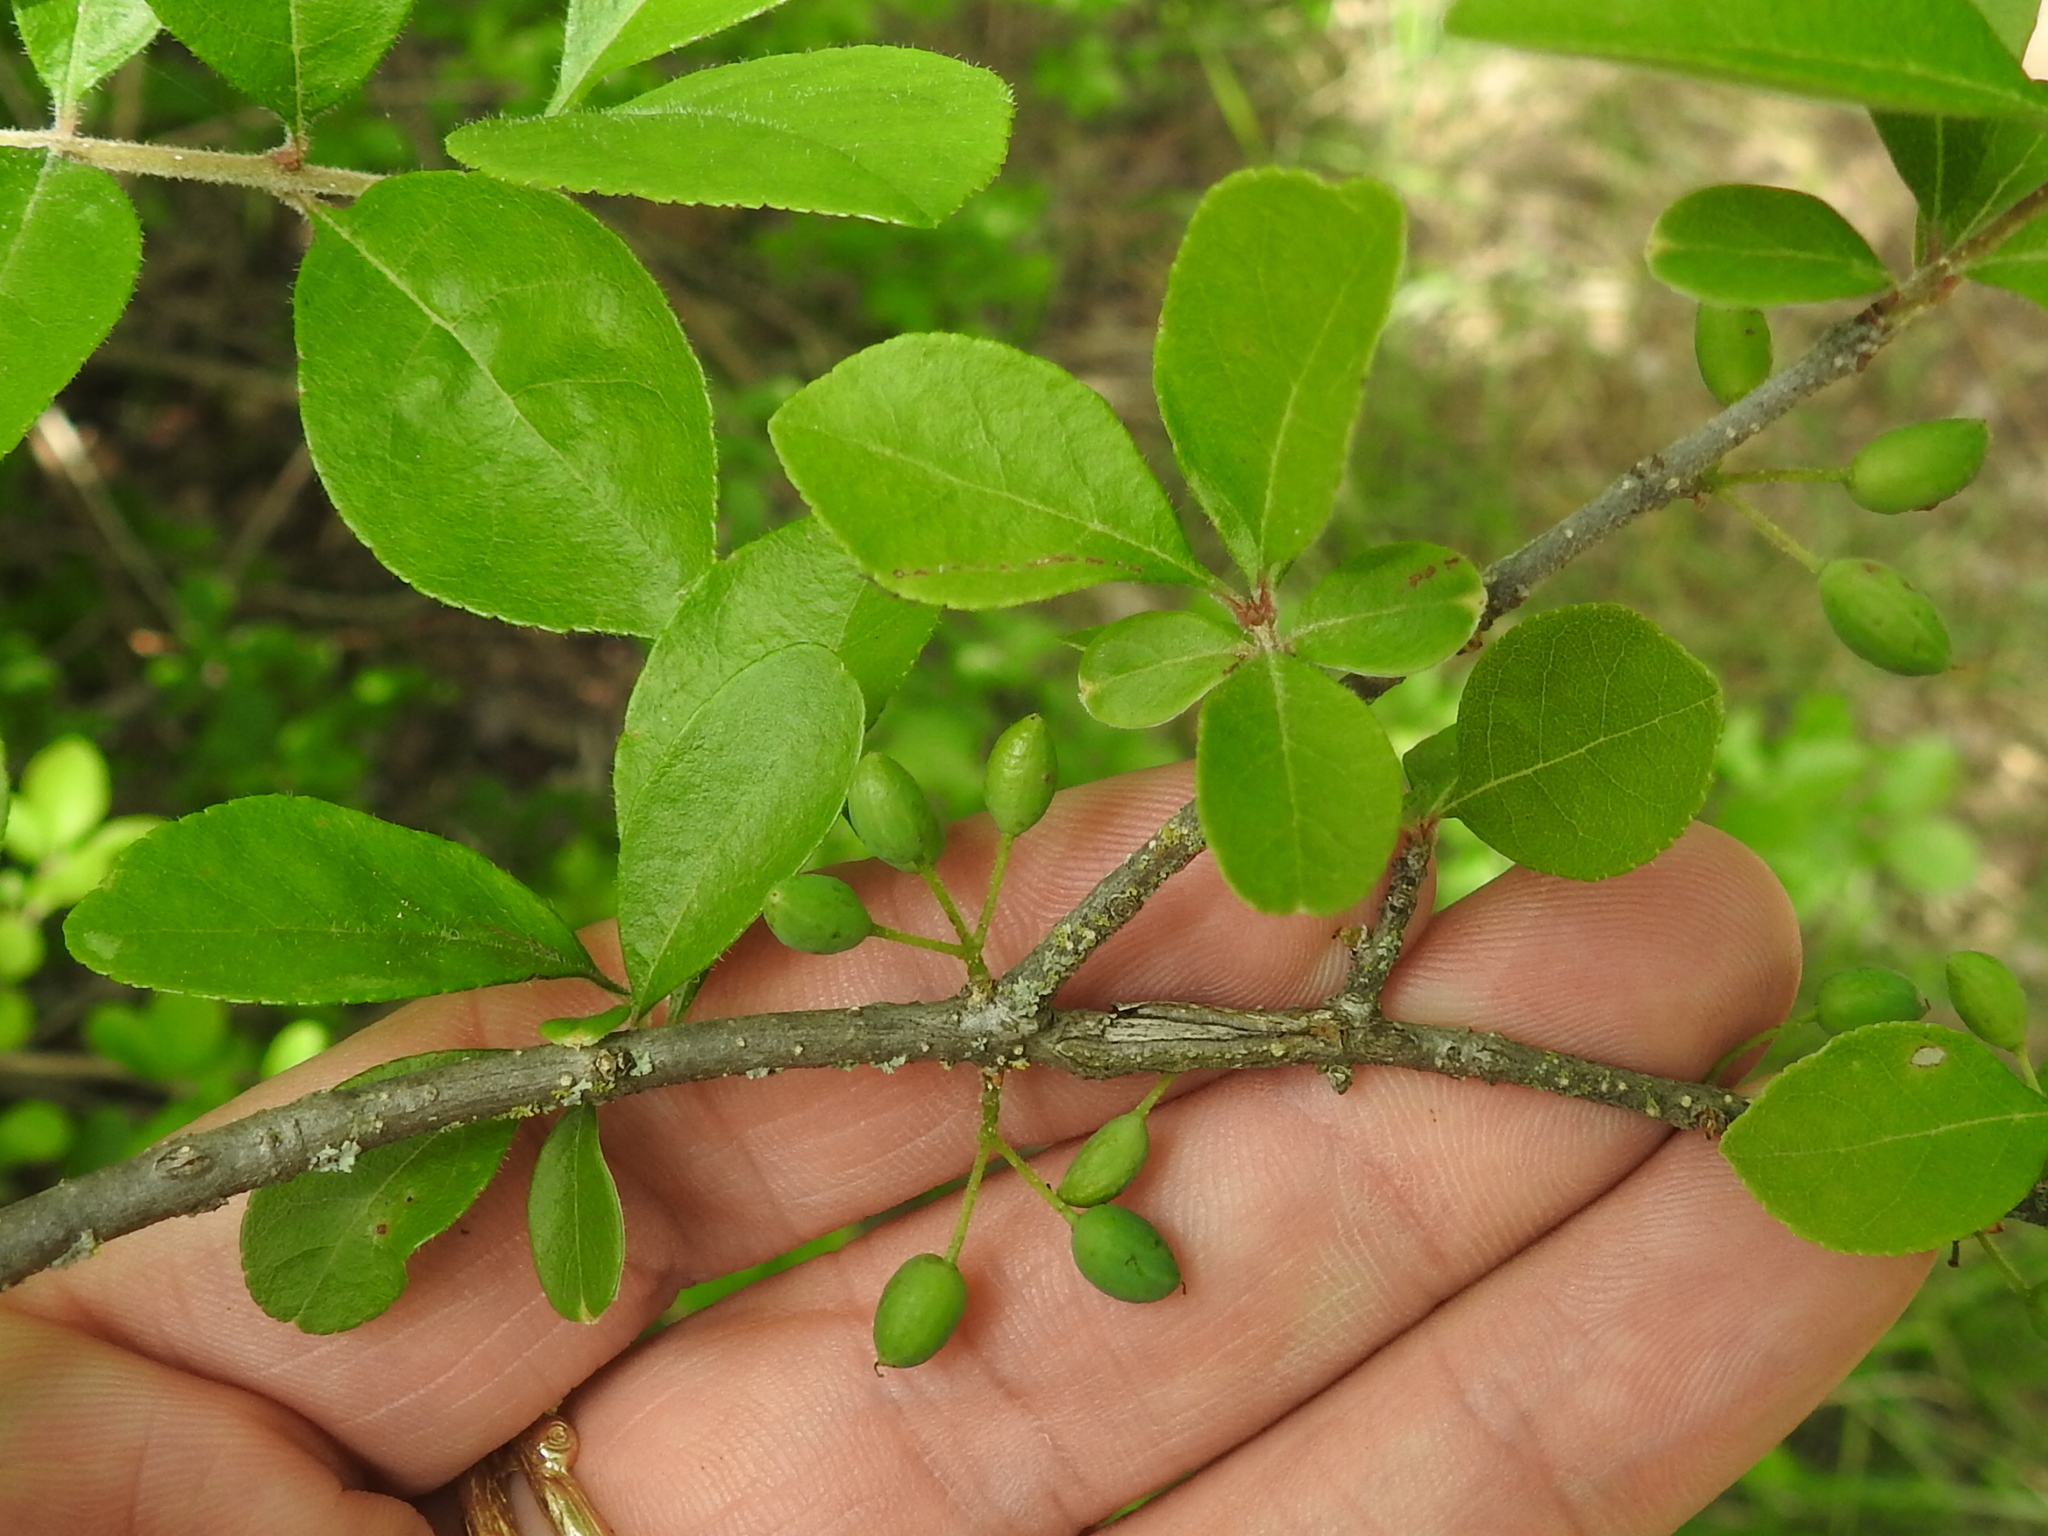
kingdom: Plantae
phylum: Tracheophyta
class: Magnoliopsida
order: Lamiales
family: Oleaceae
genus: Forestiera
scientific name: Forestiera pubescens
